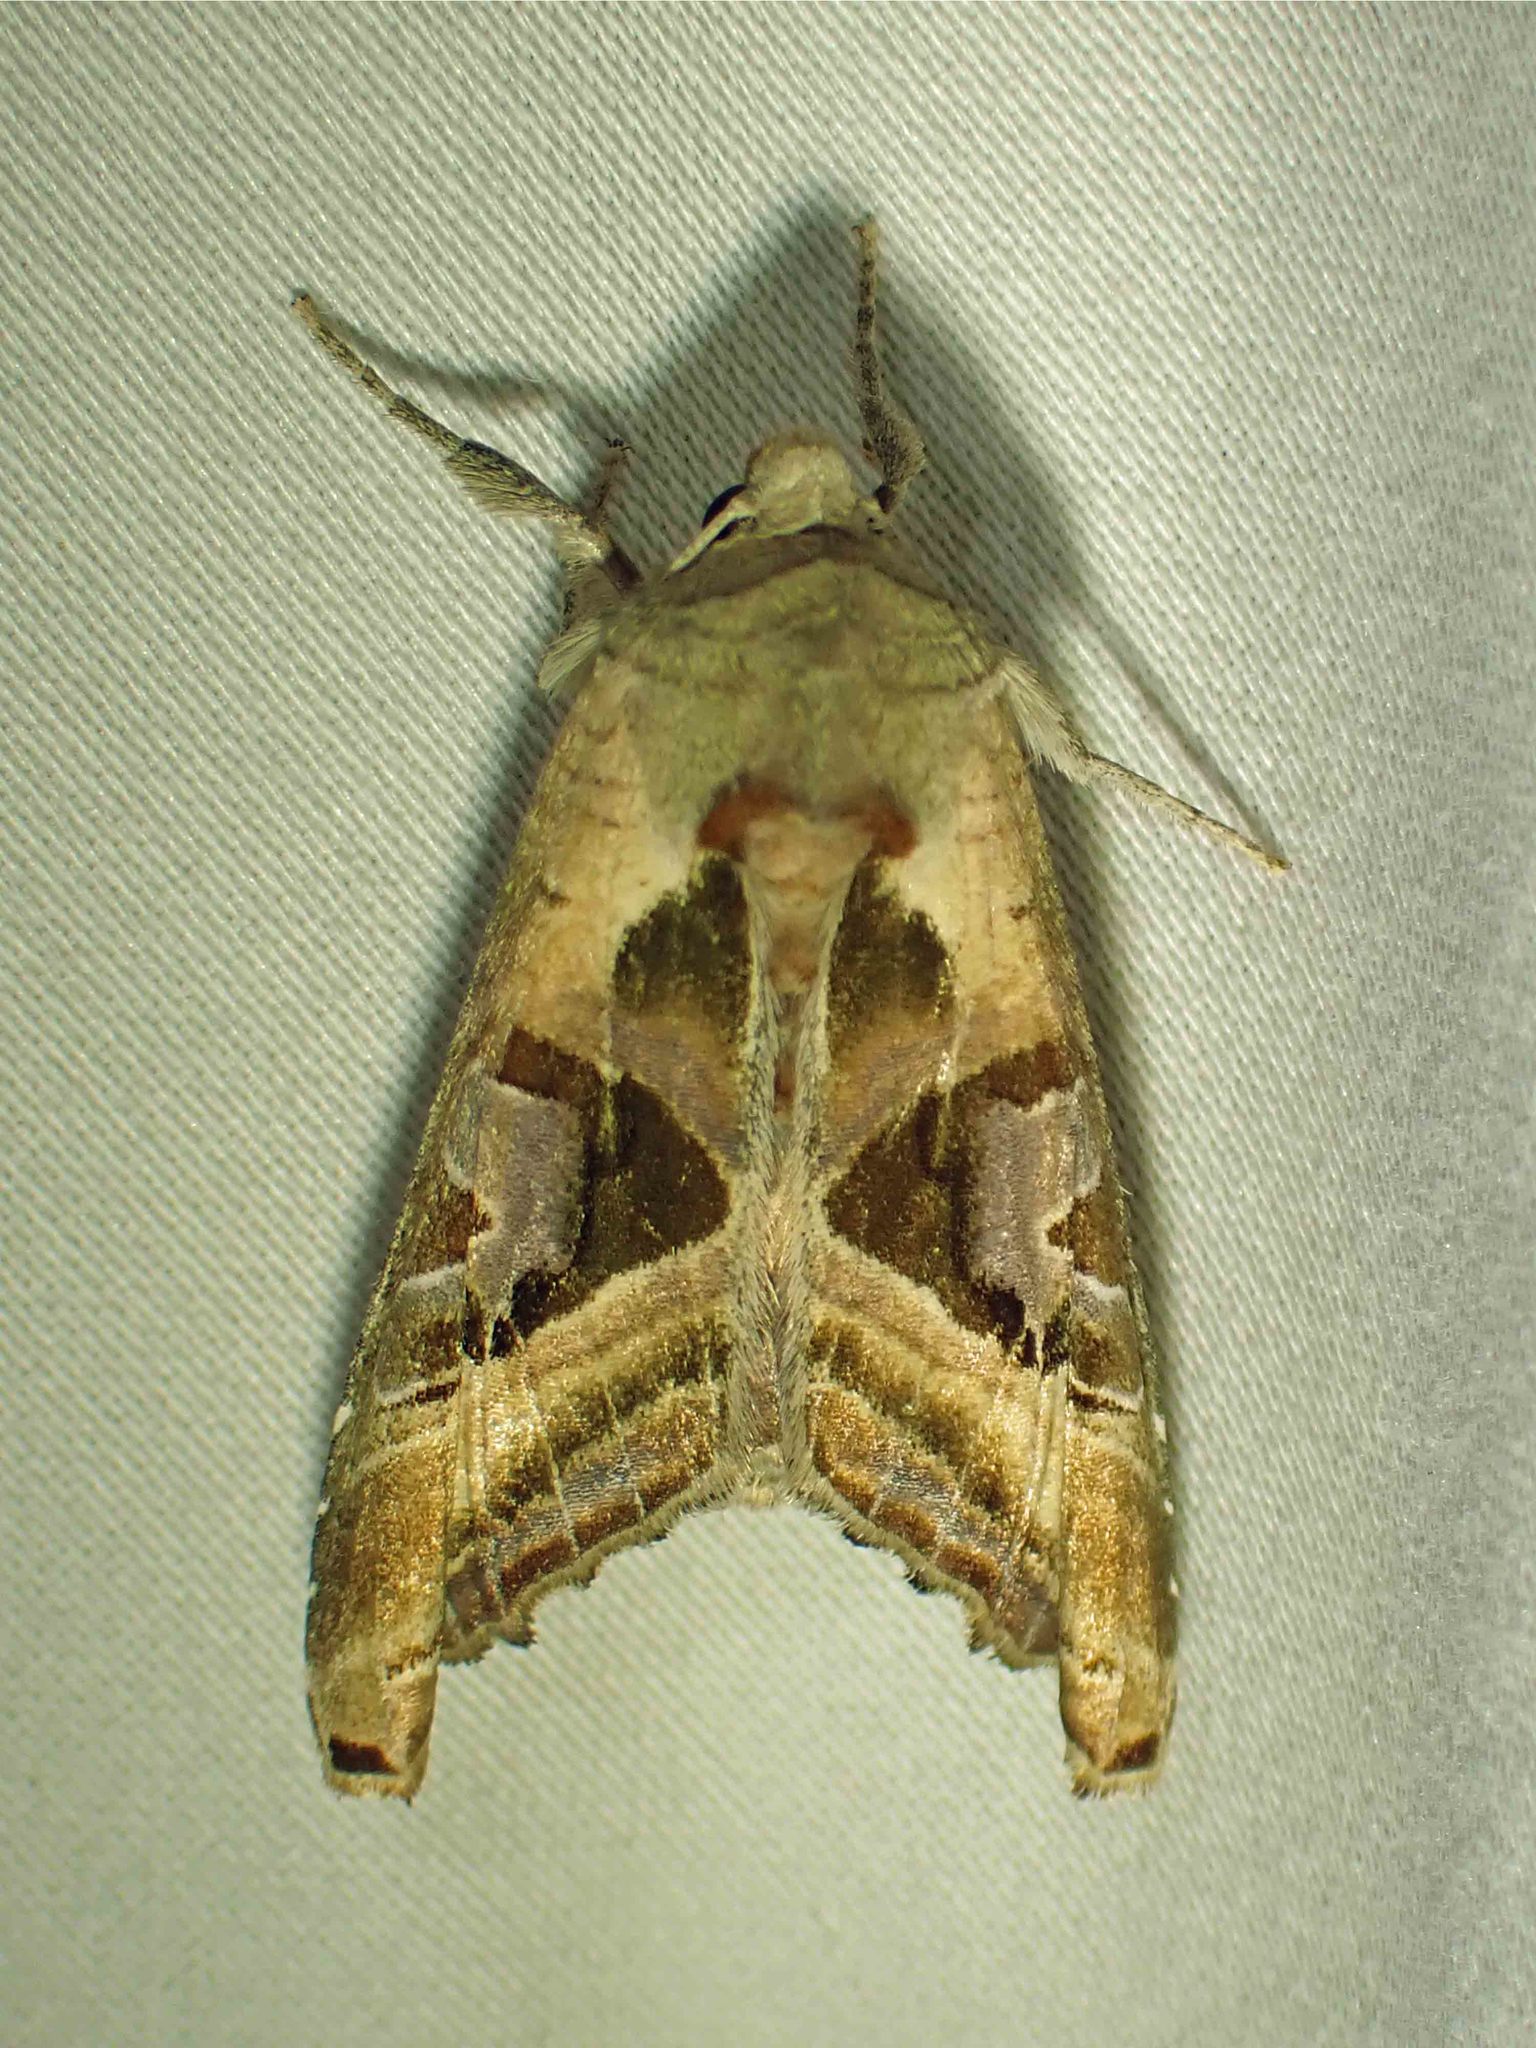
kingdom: Animalia
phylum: Arthropoda
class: Insecta
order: Lepidoptera
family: Noctuidae
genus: Phlogophora
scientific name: Phlogophora iris
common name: Olive angle shades
